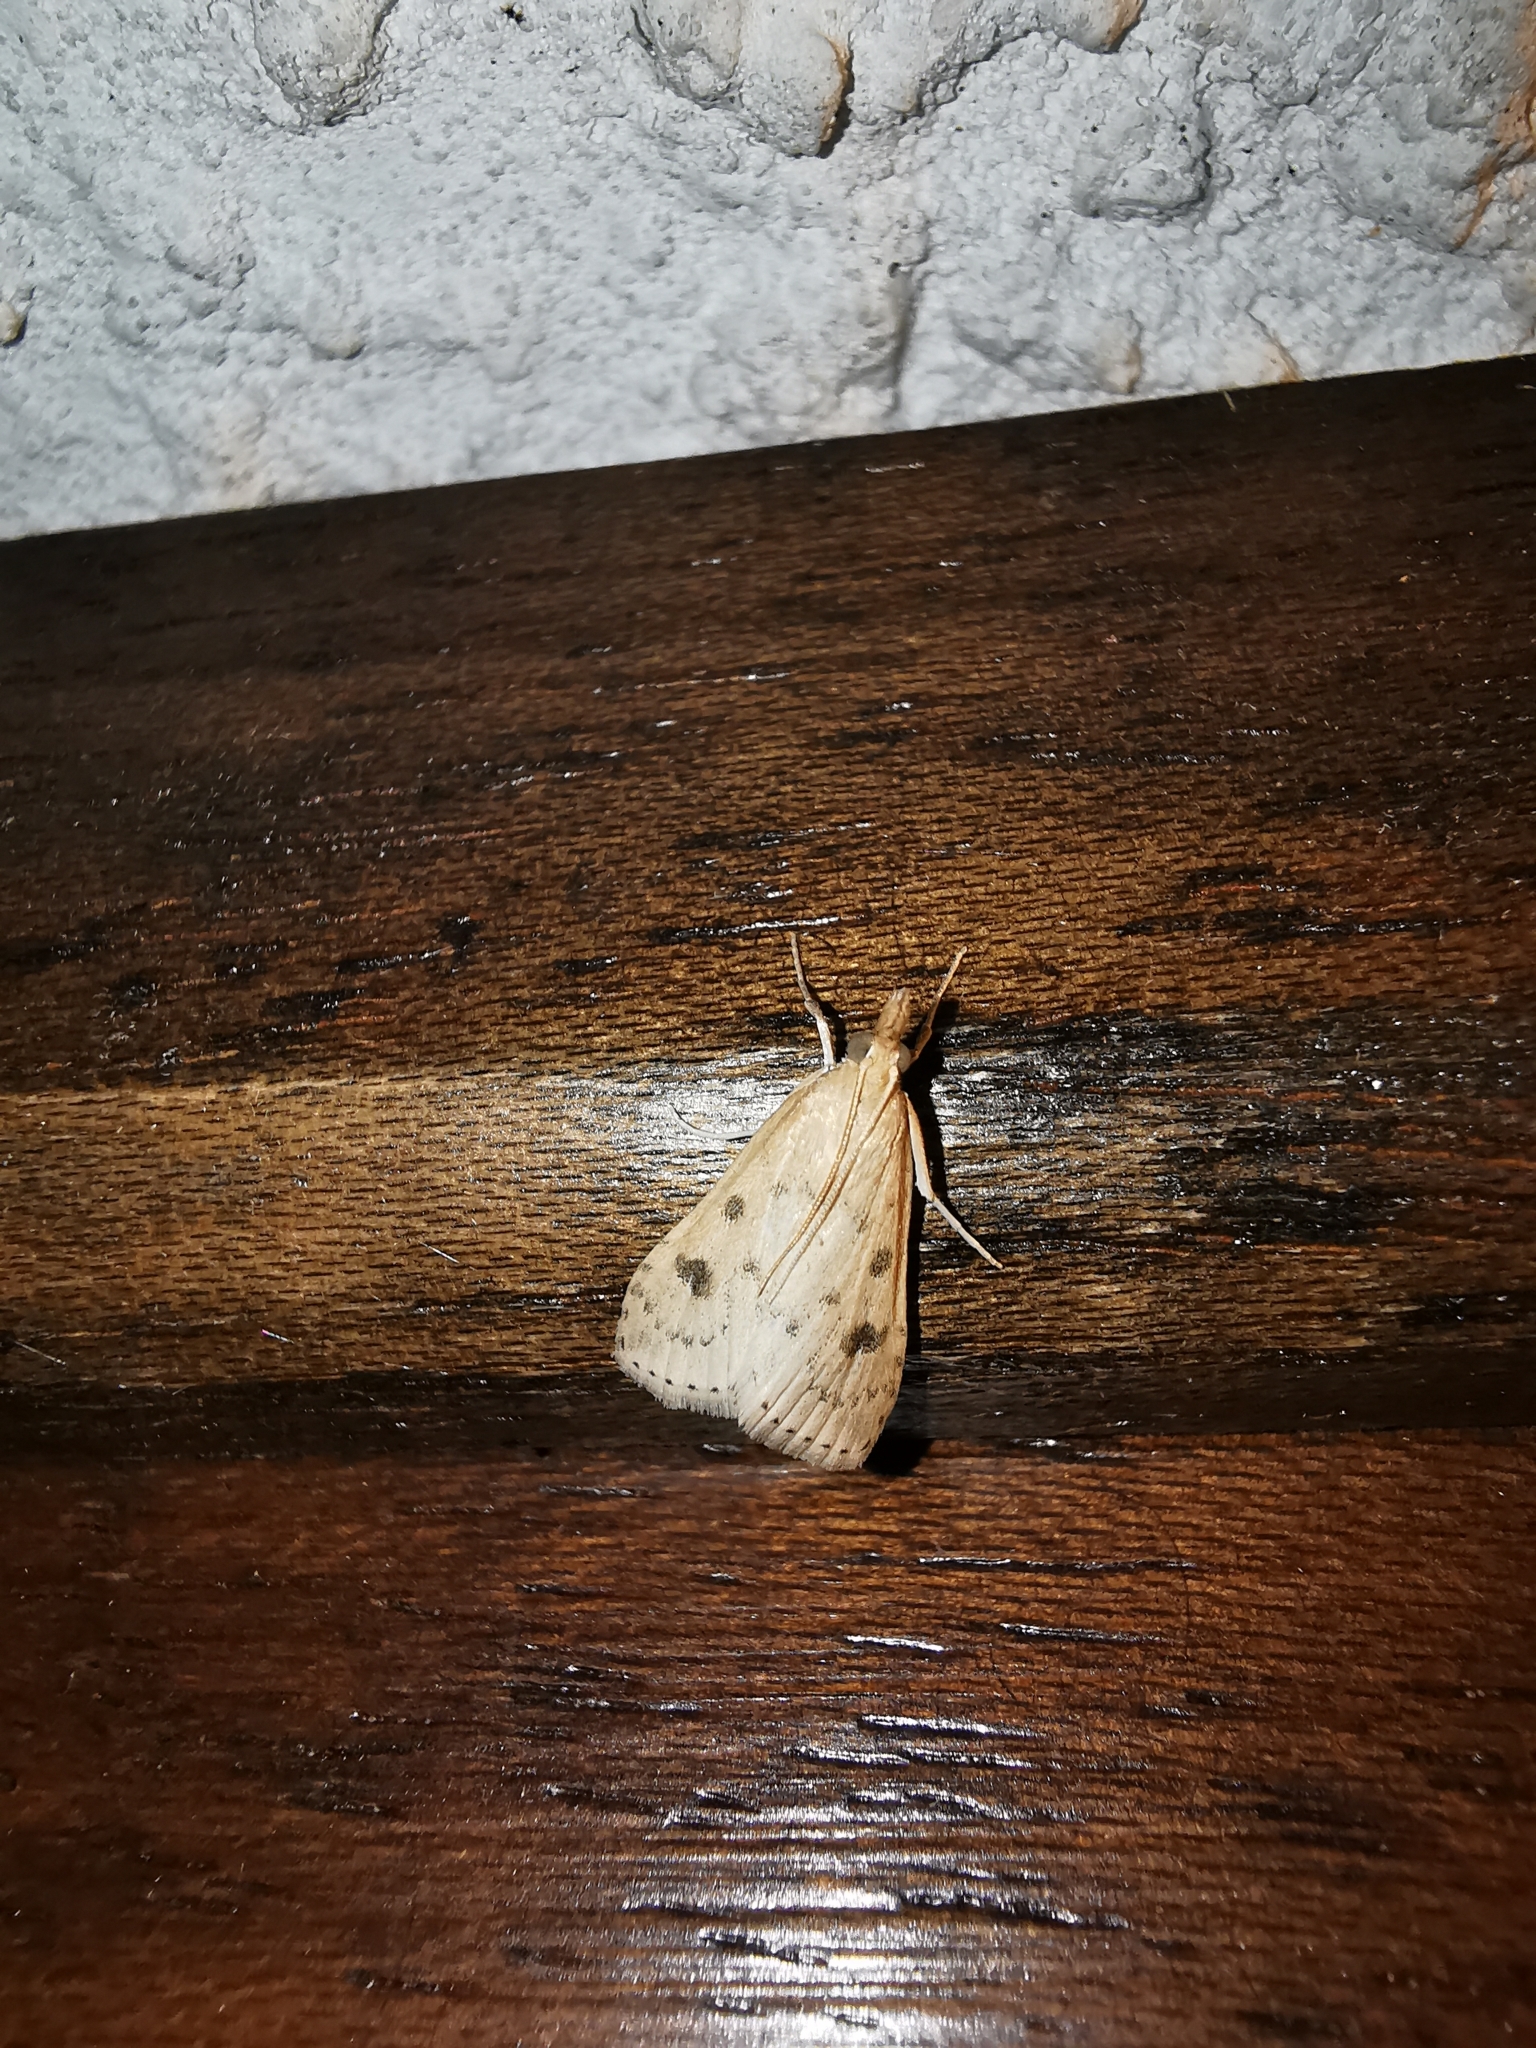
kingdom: Animalia
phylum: Arthropoda
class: Insecta
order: Lepidoptera
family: Crambidae
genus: Udea
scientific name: Udea numeralis
